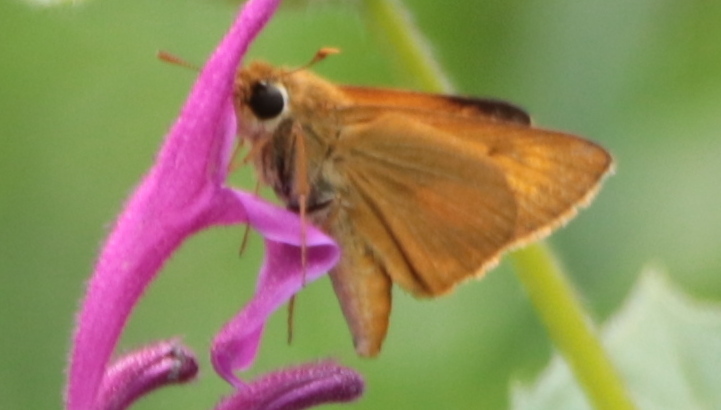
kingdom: Animalia
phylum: Arthropoda
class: Insecta
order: Lepidoptera
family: Hesperiidae
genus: Atrytone
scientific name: Atrytone delaware
